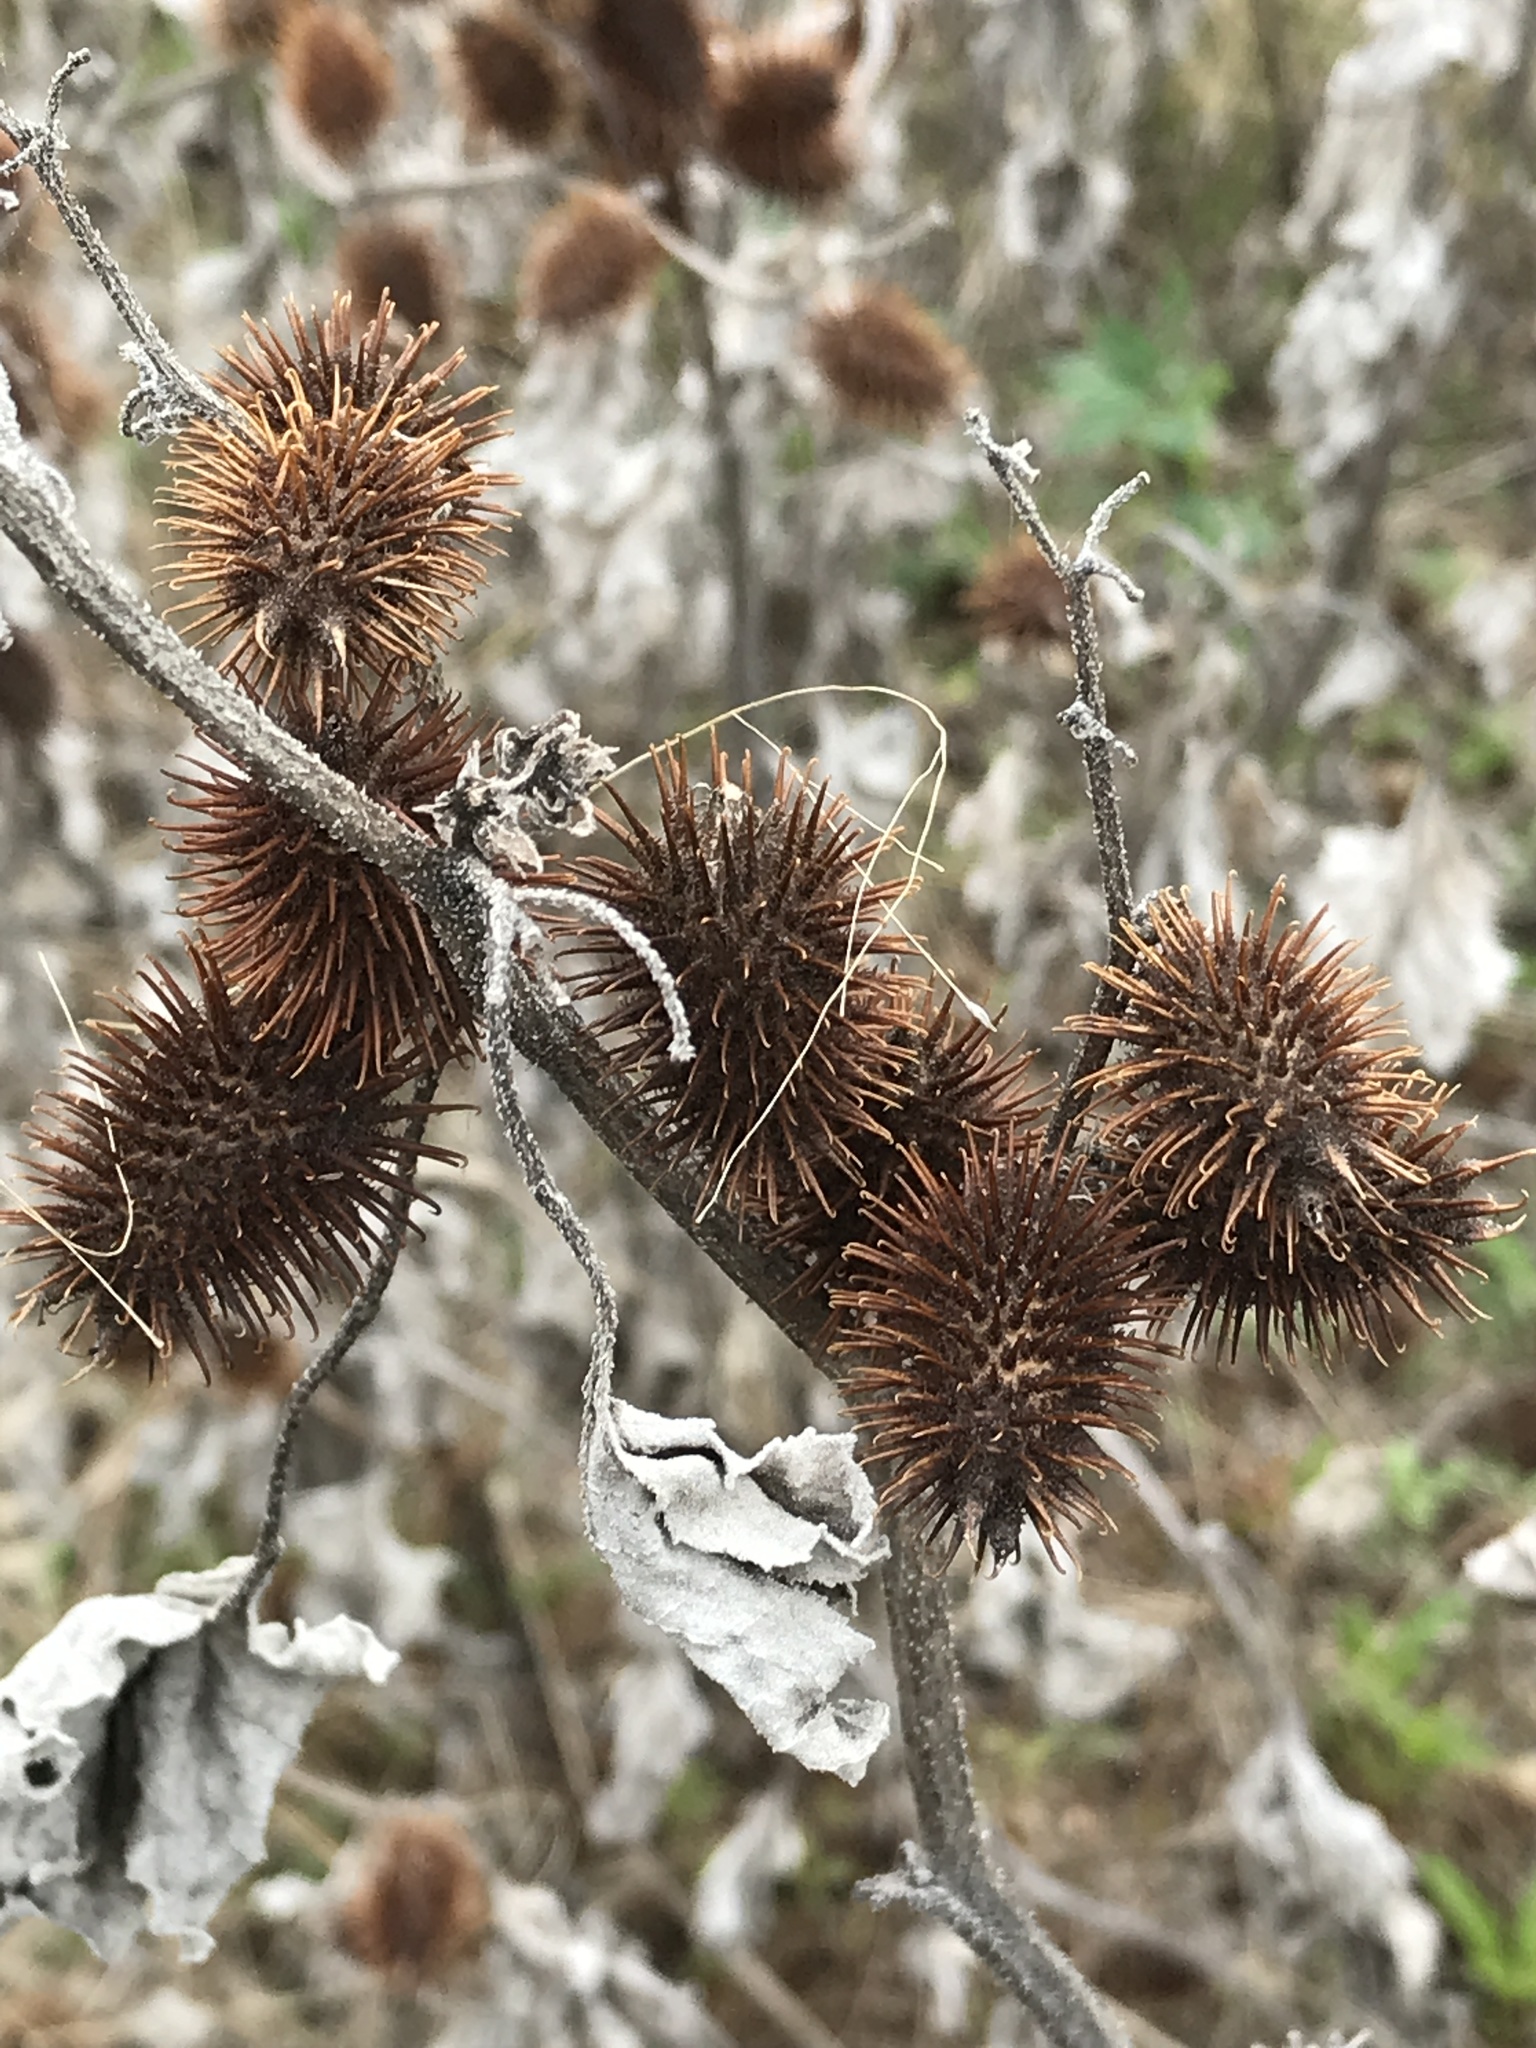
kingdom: Plantae
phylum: Tracheophyta
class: Magnoliopsida
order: Asterales
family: Asteraceae
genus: Xanthium
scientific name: Xanthium strumarium
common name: Rough cocklebur
